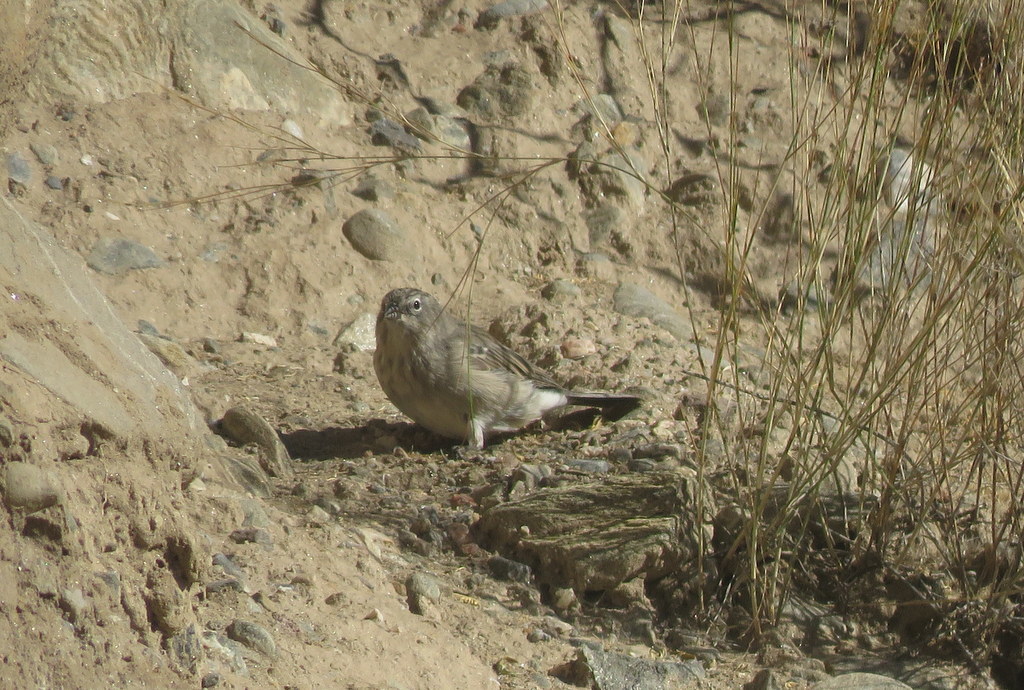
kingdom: Animalia
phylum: Chordata
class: Aves
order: Passeriformes
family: Thraupidae
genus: Geospizopsis
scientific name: Geospizopsis plebejus
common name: Ash-breasted sierra-finch
